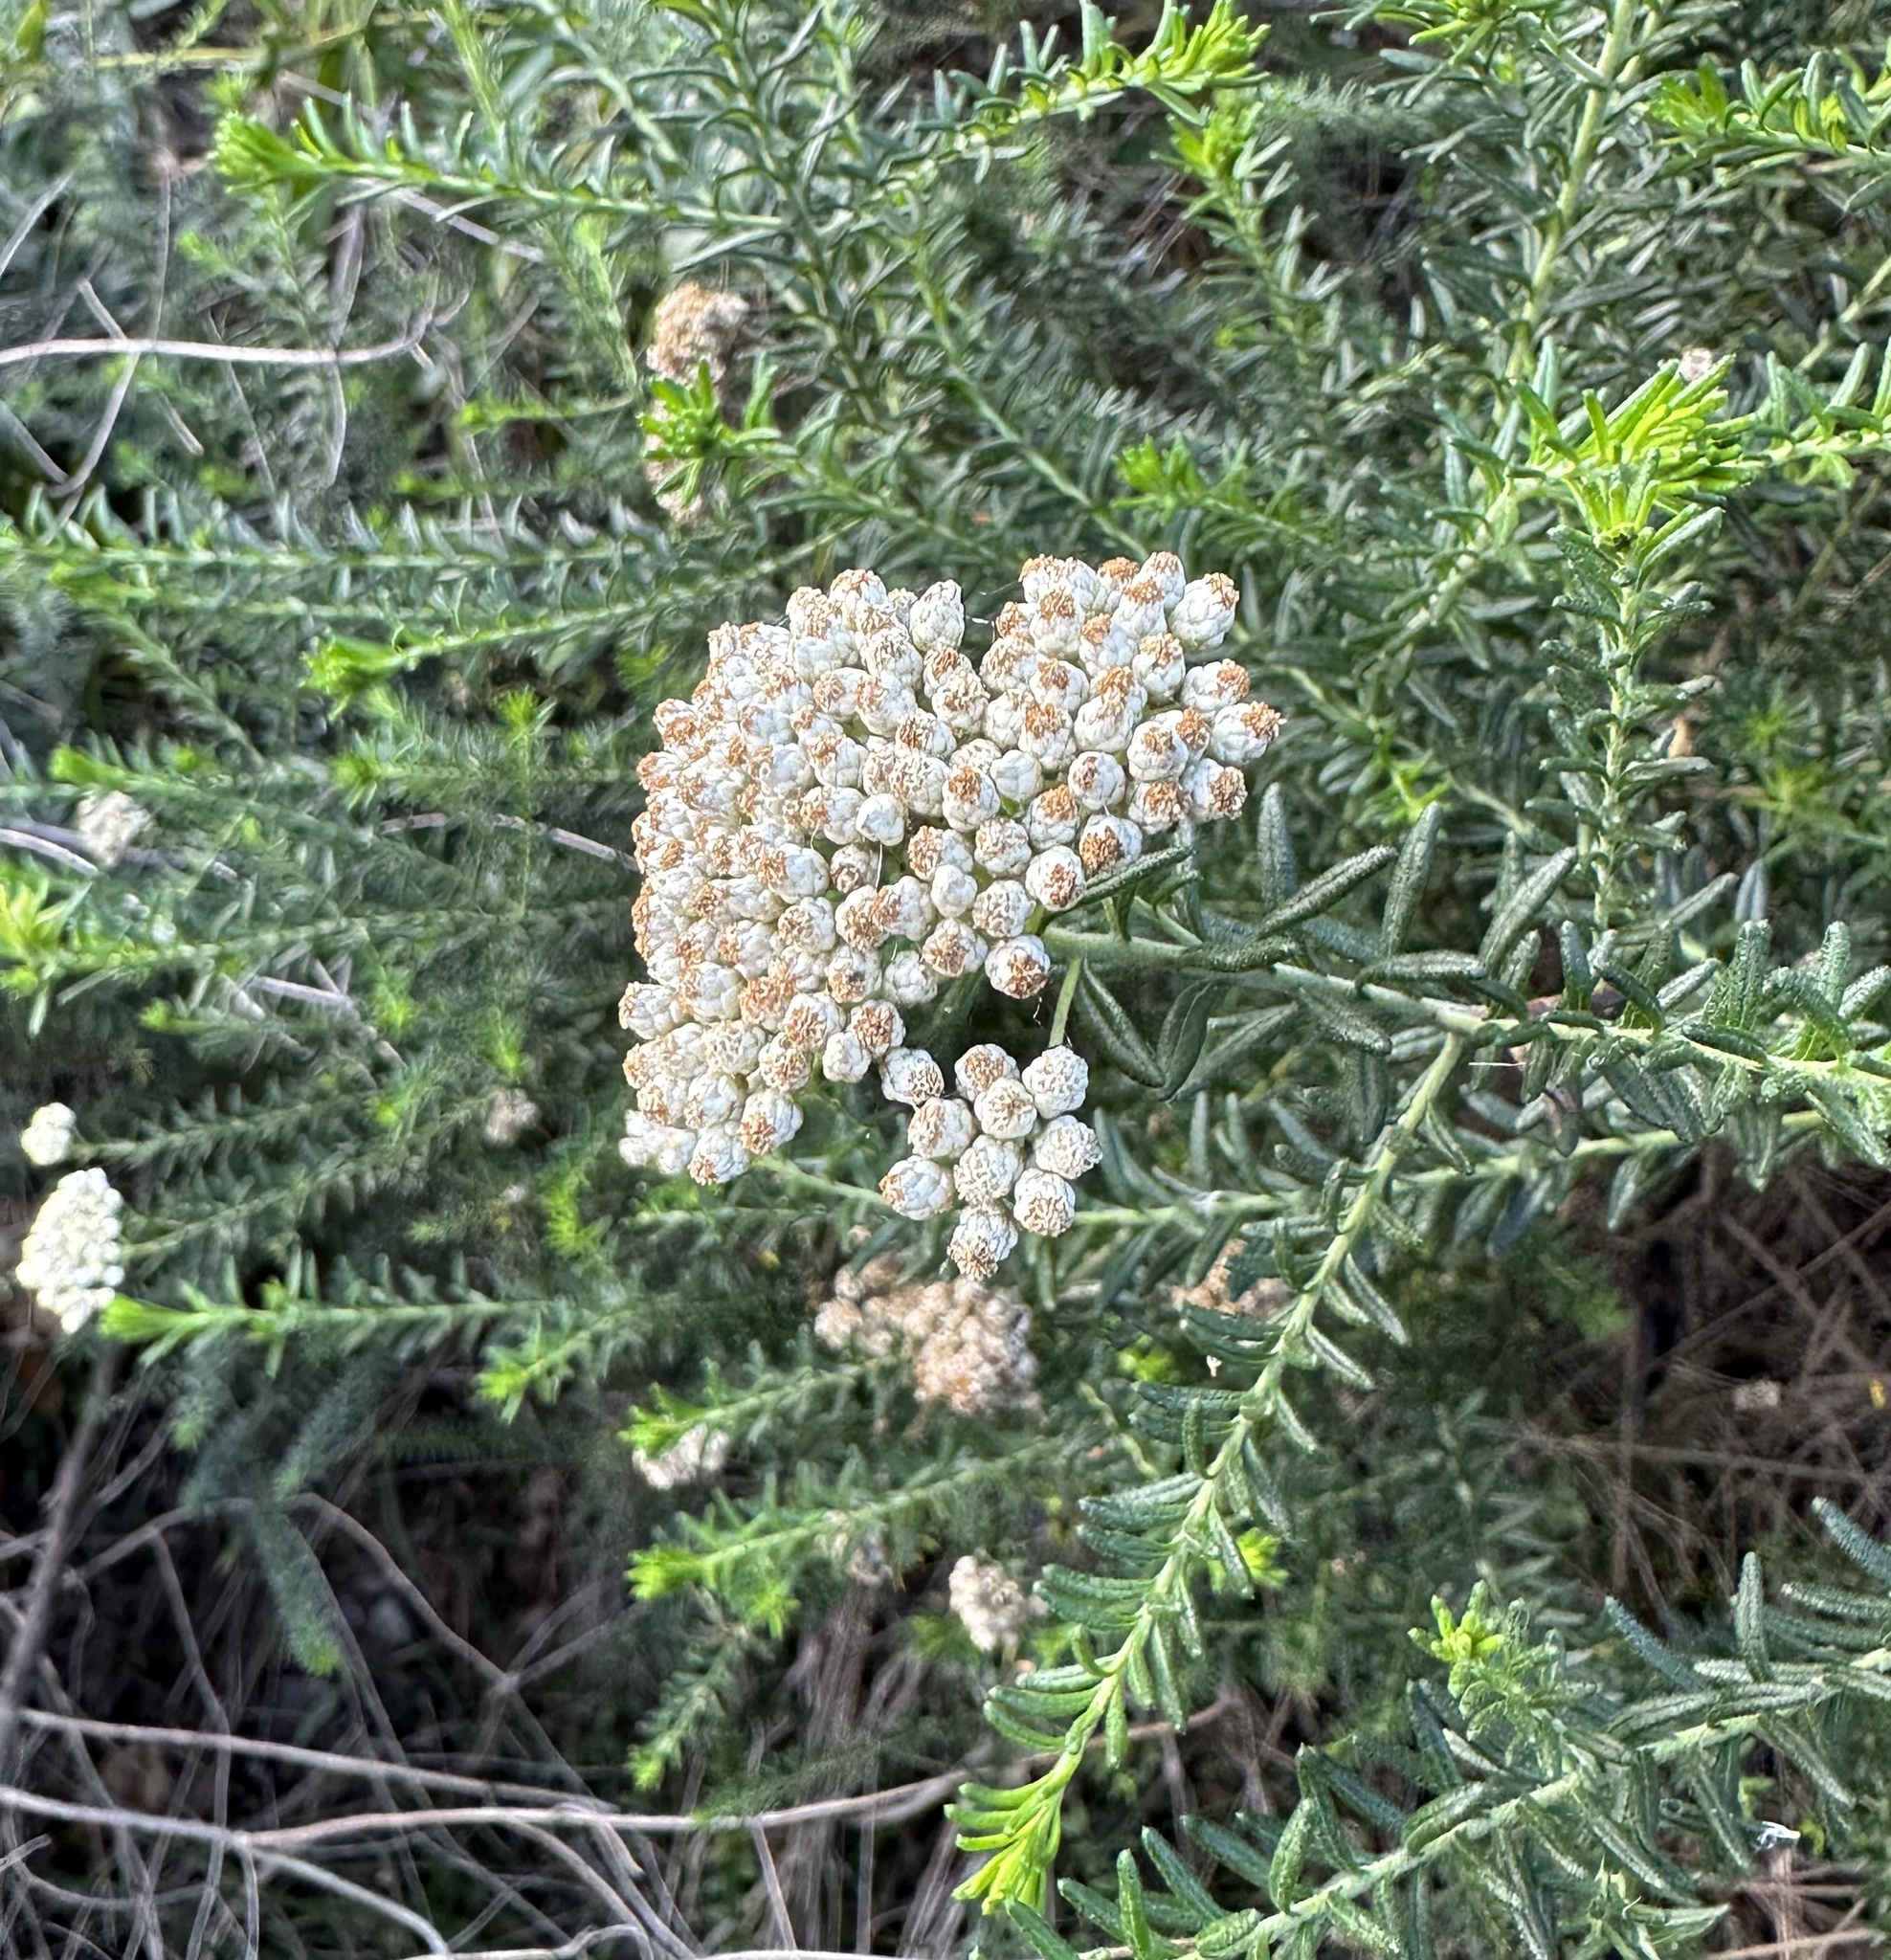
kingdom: Plantae
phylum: Tracheophyta
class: Magnoliopsida
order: Asterales
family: Asteraceae
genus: Ozothamnus
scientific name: Ozothamnus diosmifolius
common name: White-dogwood
